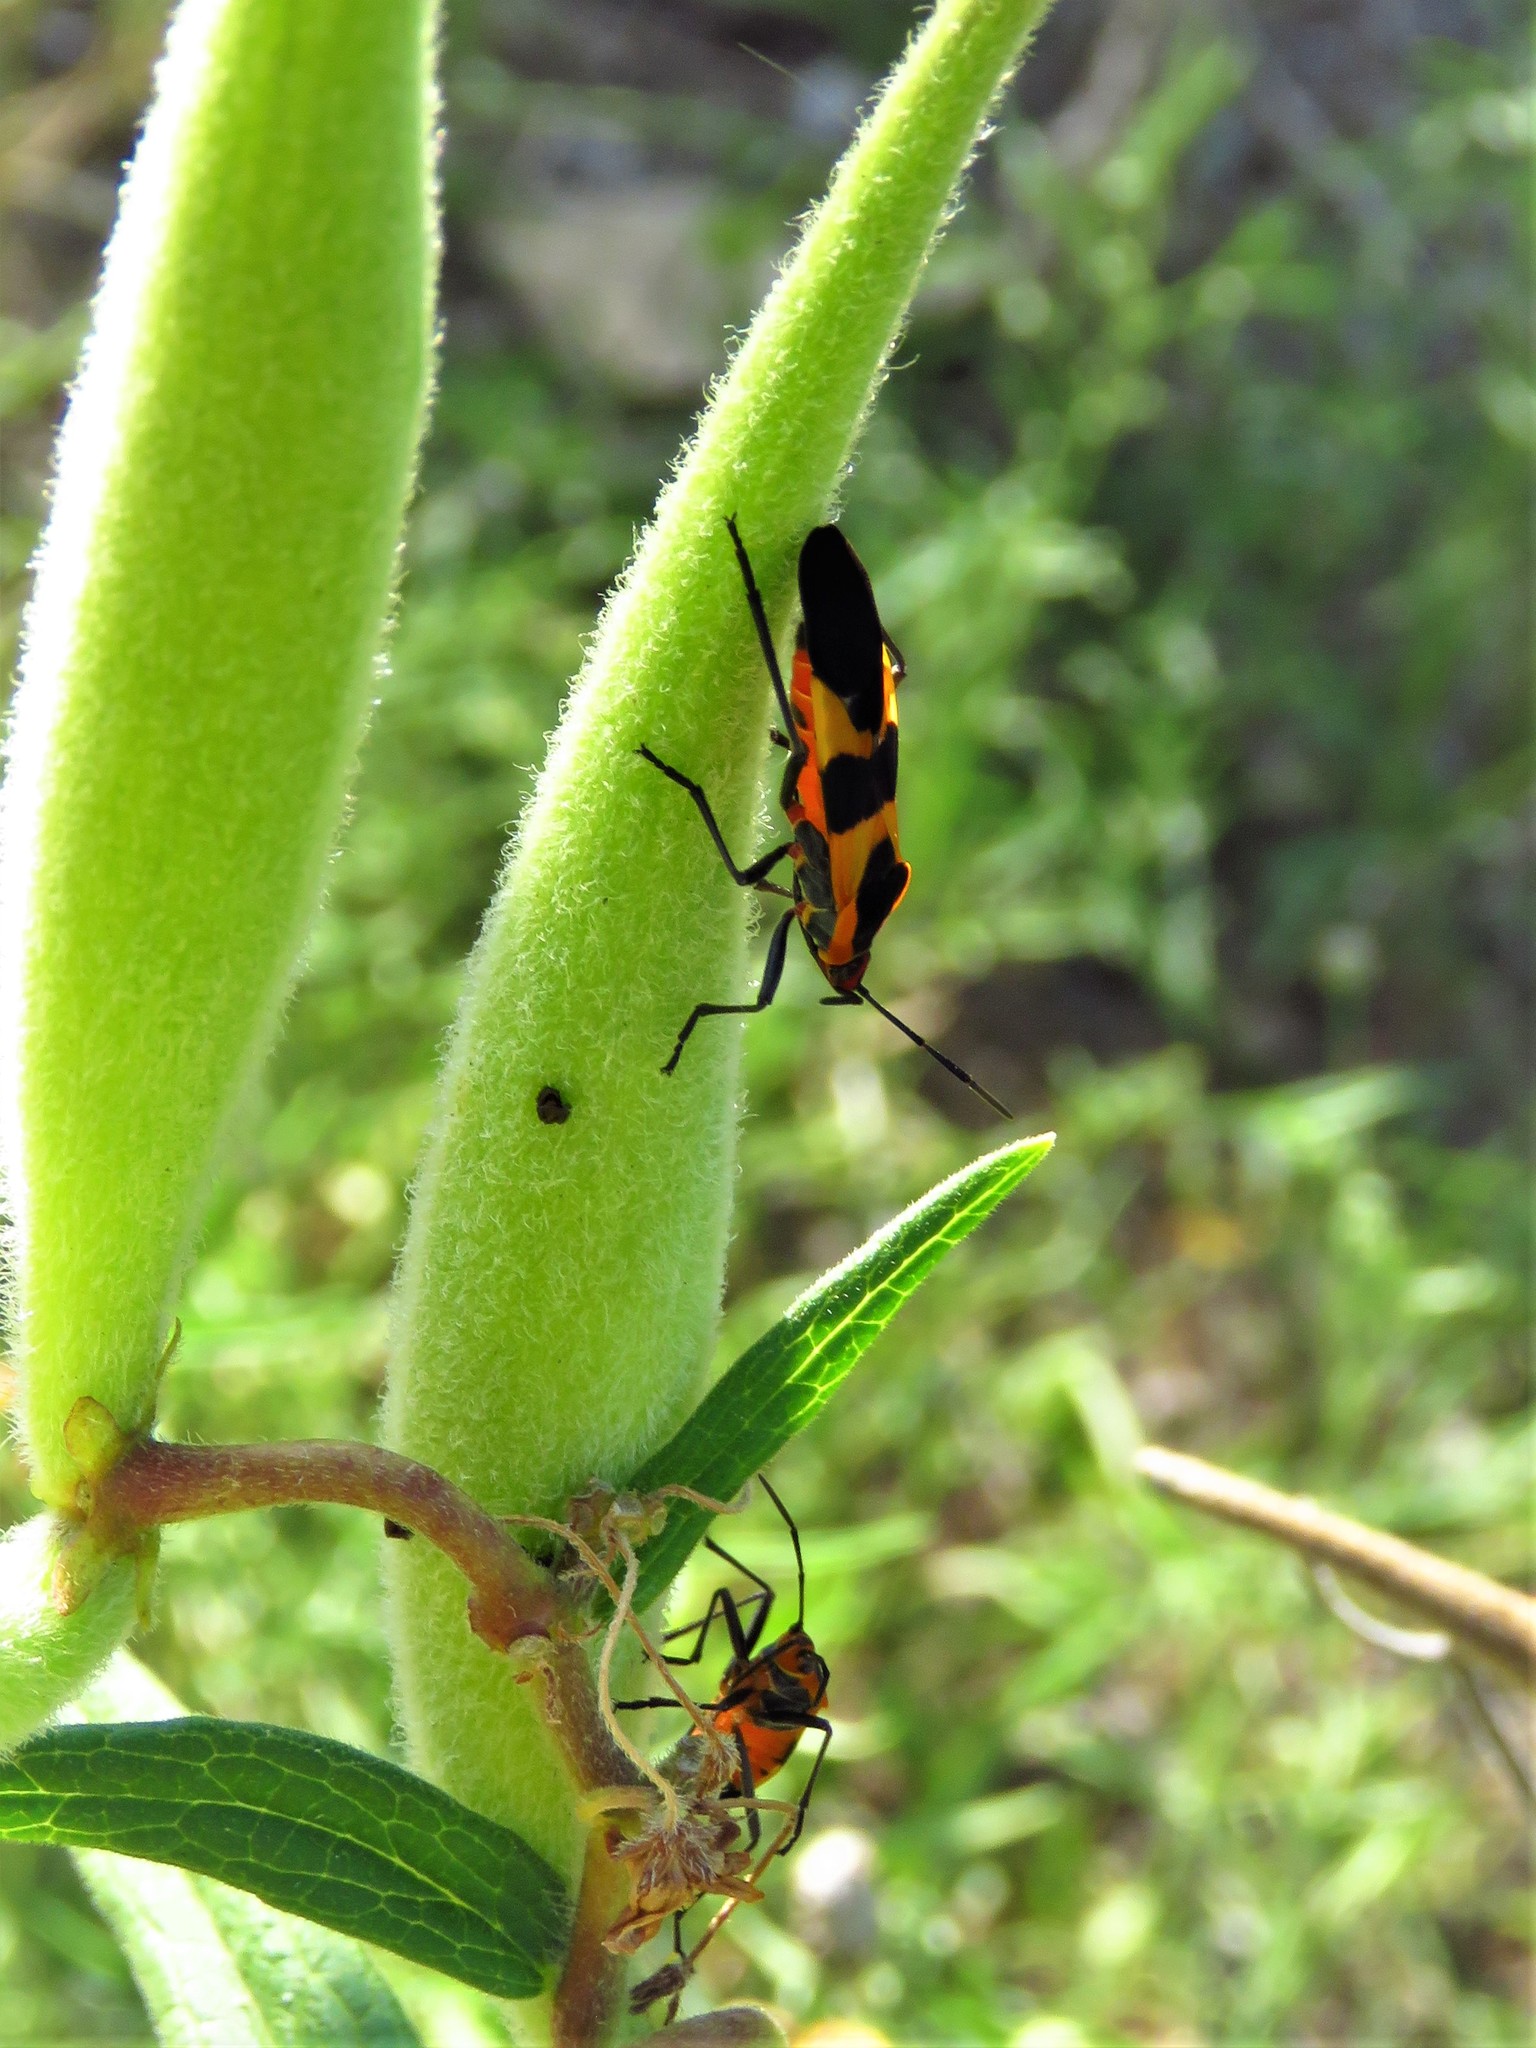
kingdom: Animalia
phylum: Arthropoda
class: Insecta
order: Hemiptera
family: Lygaeidae
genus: Oncopeltus
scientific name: Oncopeltus fasciatus
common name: Large milkweed bug
